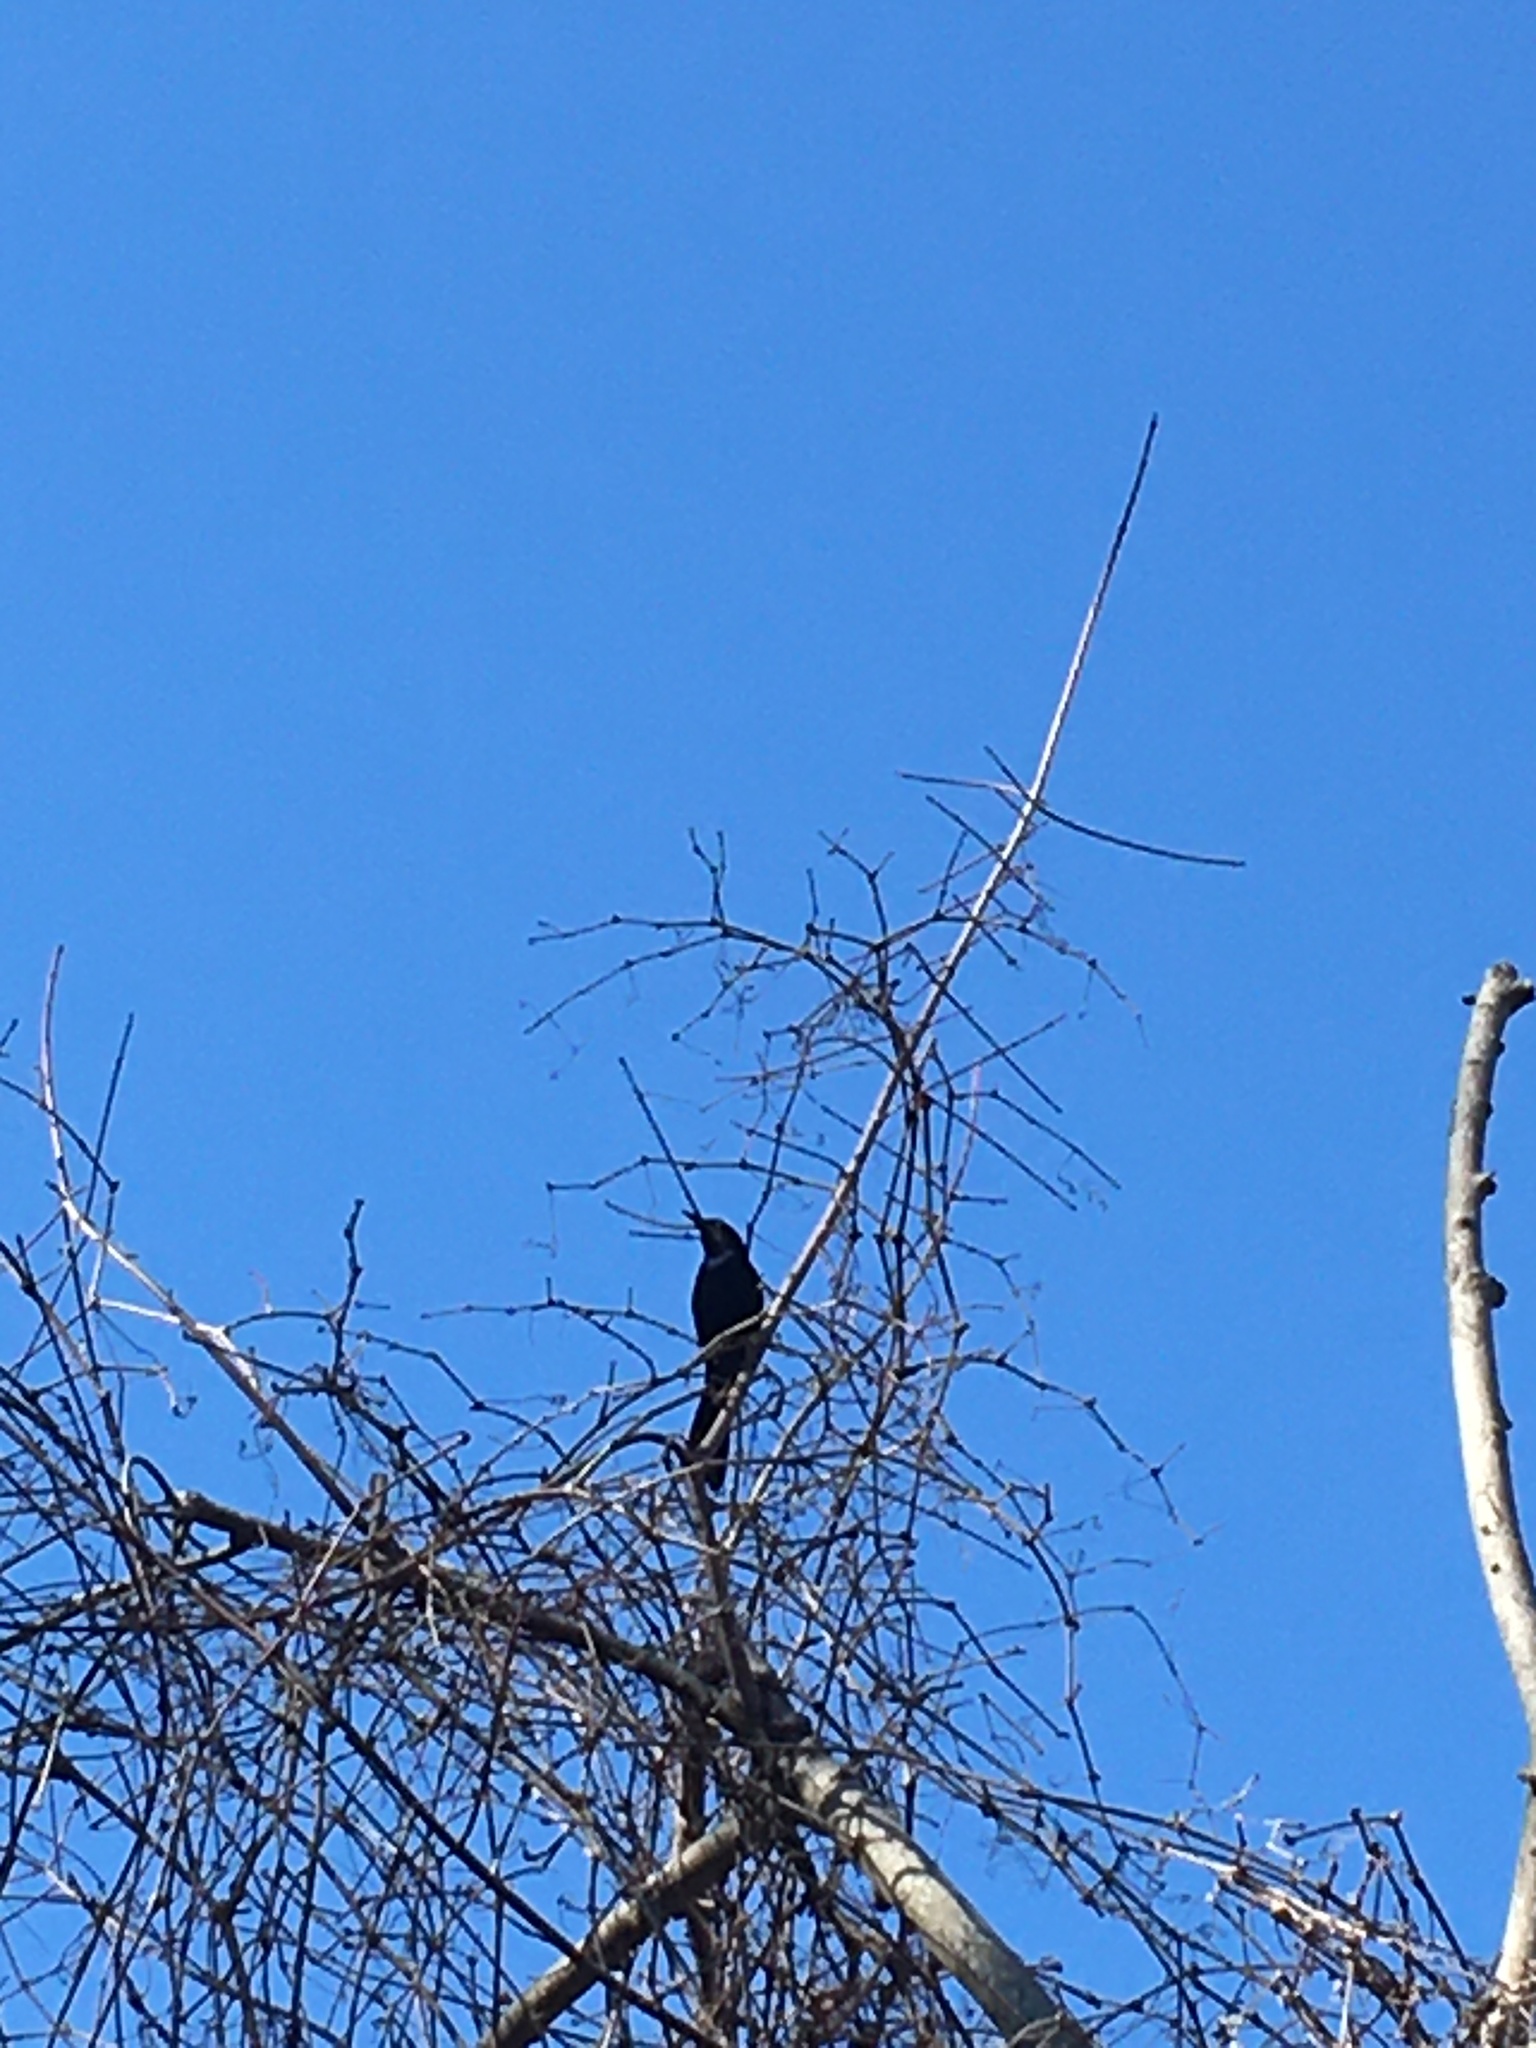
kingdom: Animalia
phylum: Chordata
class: Aves
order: Passeriformes
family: Icteridae
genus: Quiscalus
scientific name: Quiscalus major
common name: Boat-tailed grackle
